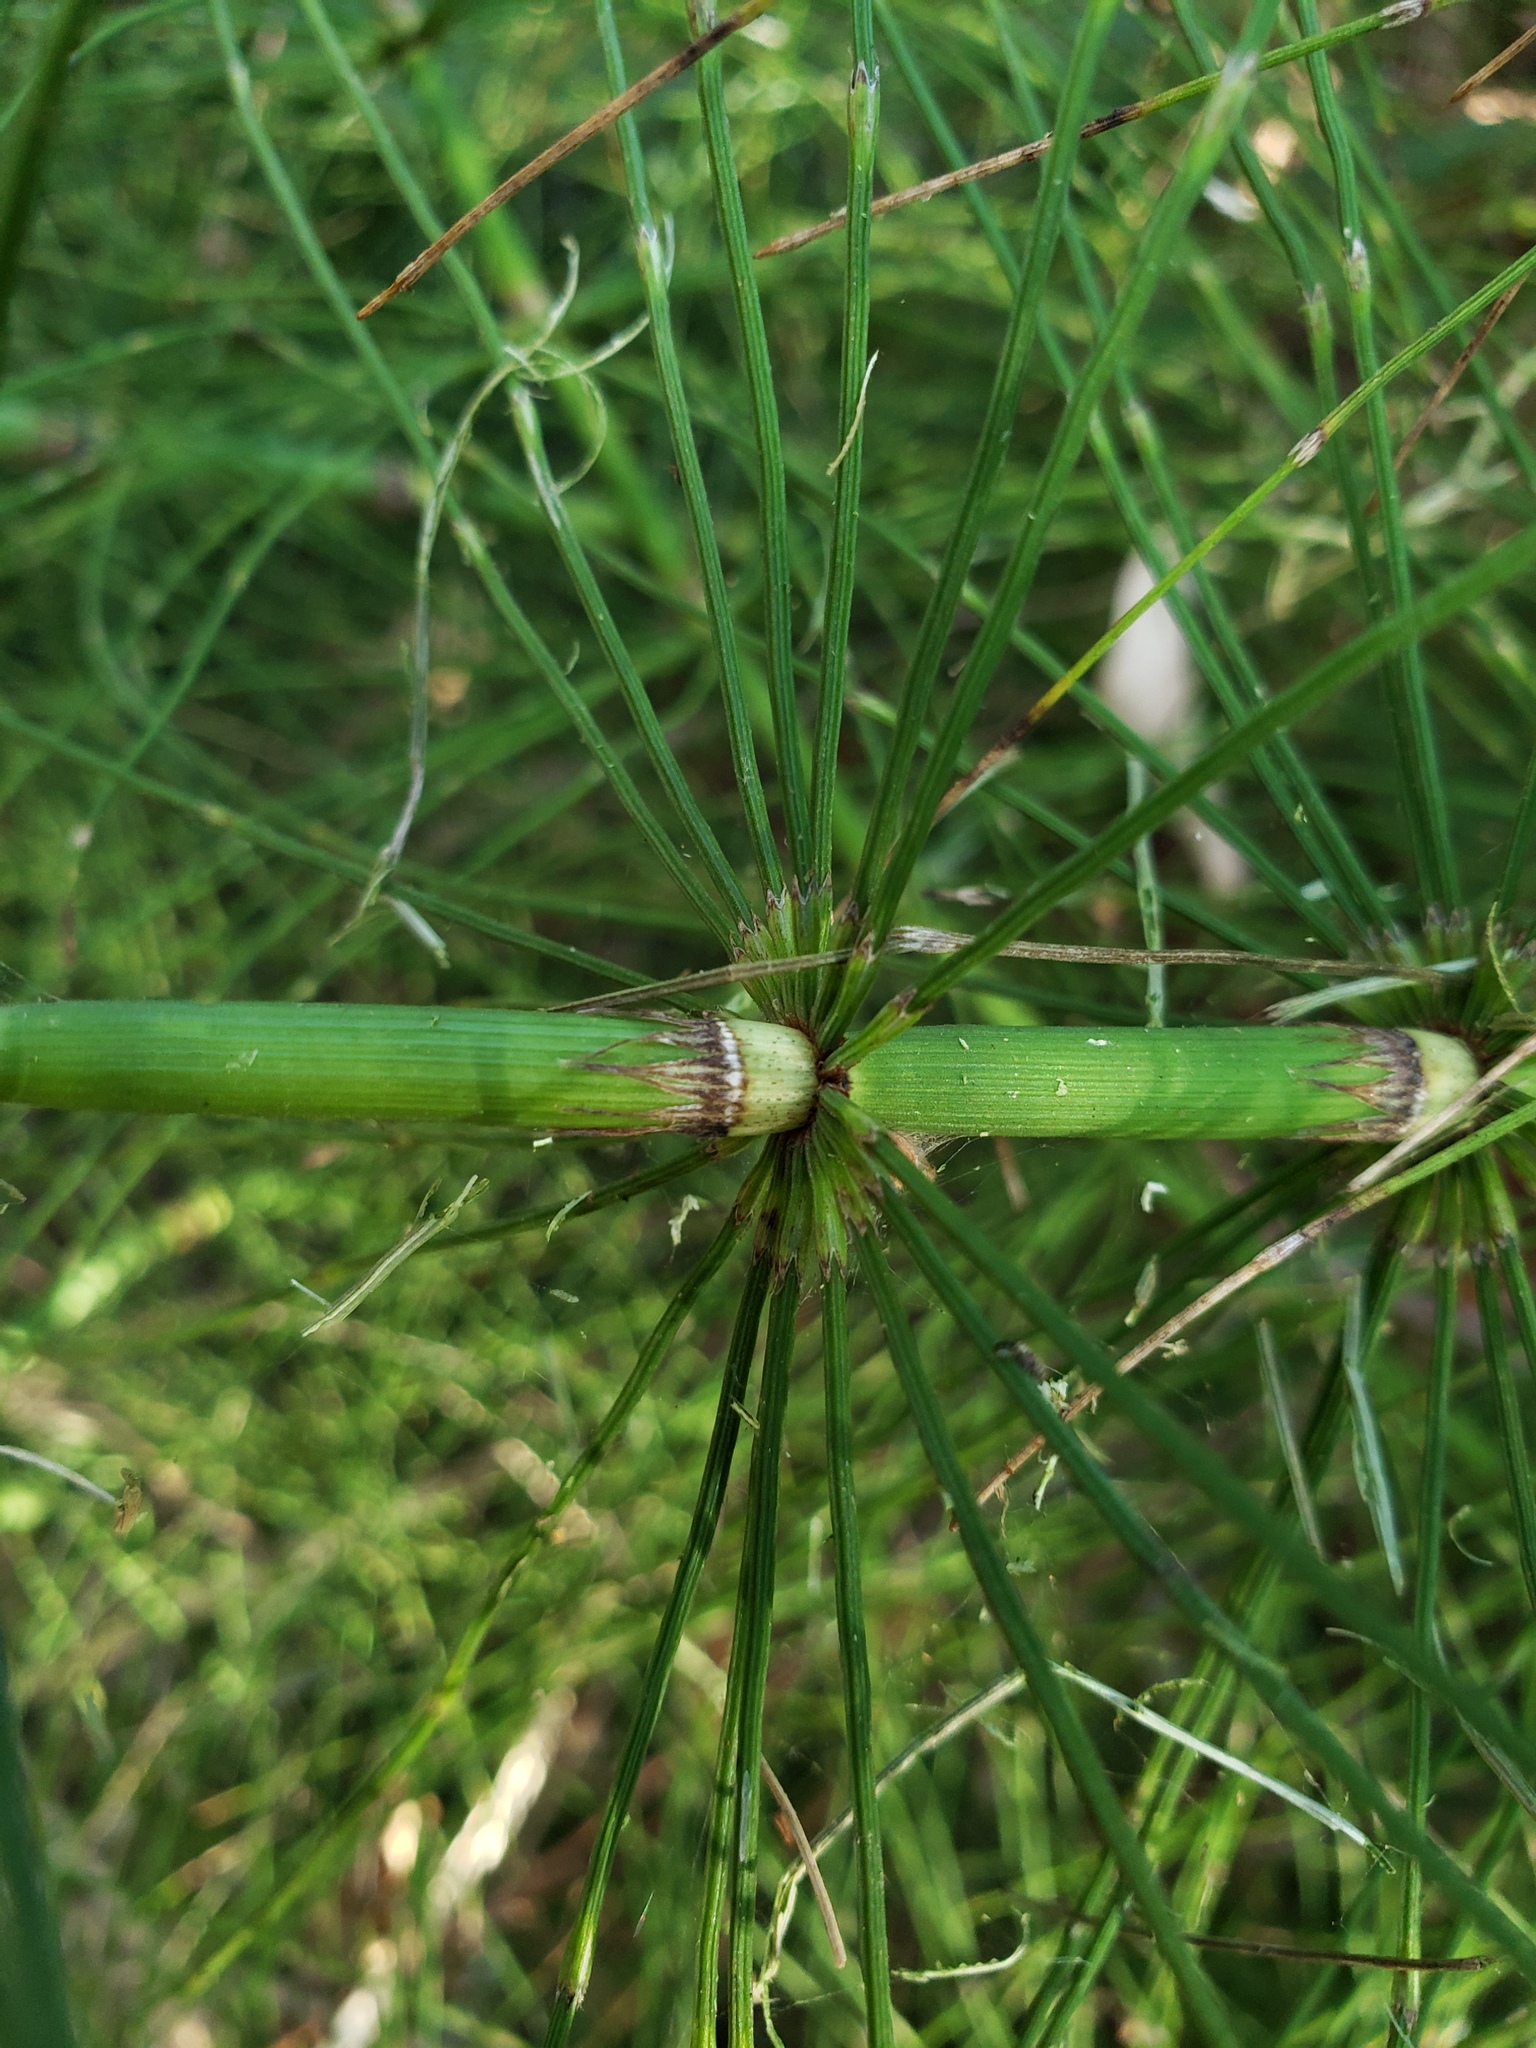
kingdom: Plantae
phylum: Tracheophyta
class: Polypodiopsida
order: Equisetales
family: Equisetaceae
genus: Equisetum
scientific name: Equisetum braunii
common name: Braun's horsetail
